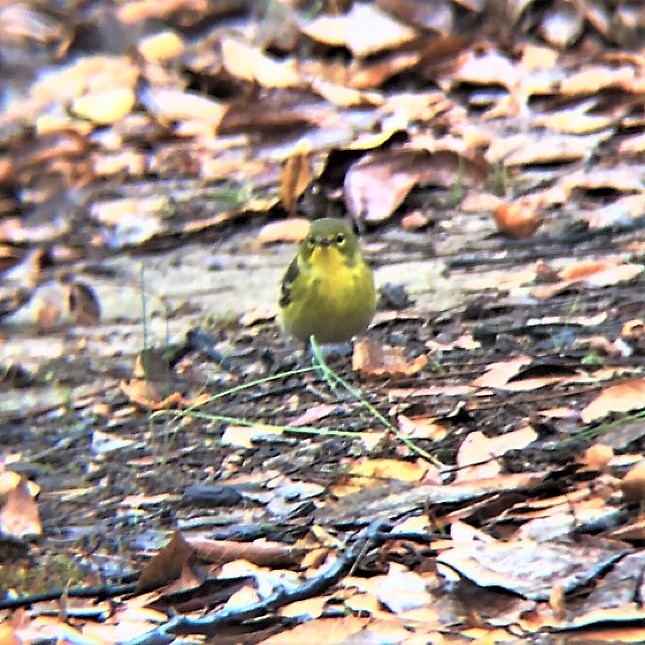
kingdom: Animalia
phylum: Chordata
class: Aves
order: Passeriformes
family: Parulidae
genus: Setophaga
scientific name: Setophaga pinus
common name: Pine warbler
